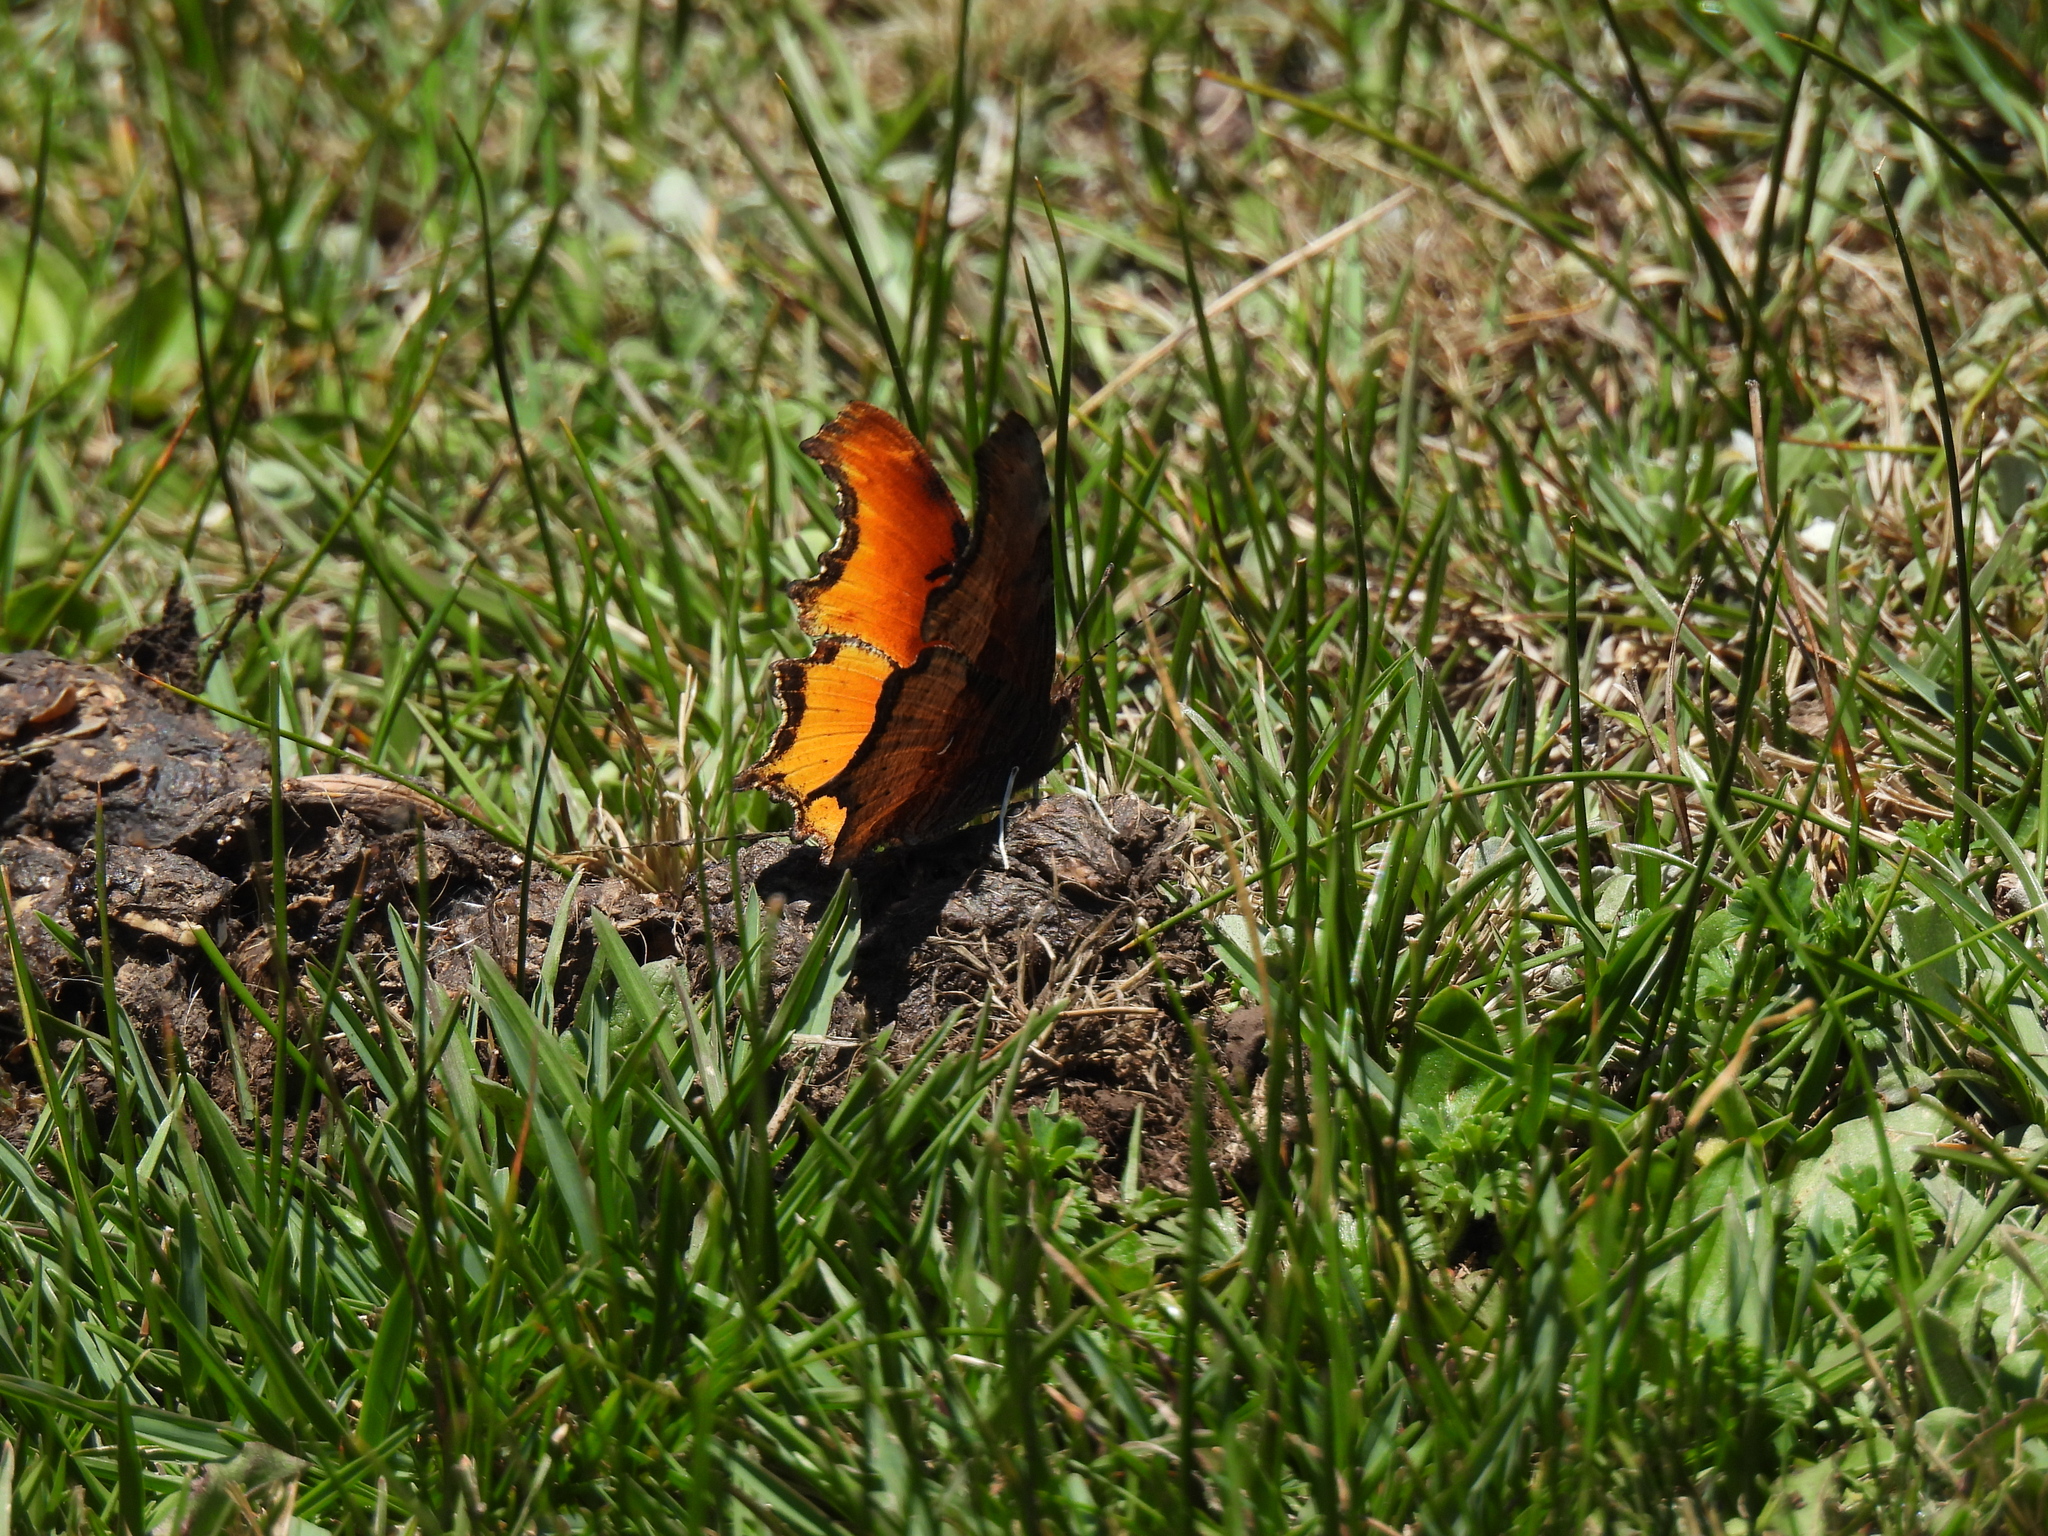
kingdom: Animalia
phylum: Arthropoda
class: Insecta
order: Lepidoptera
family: Nymphalidae
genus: Polygonia
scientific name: Polygonia haroldi
